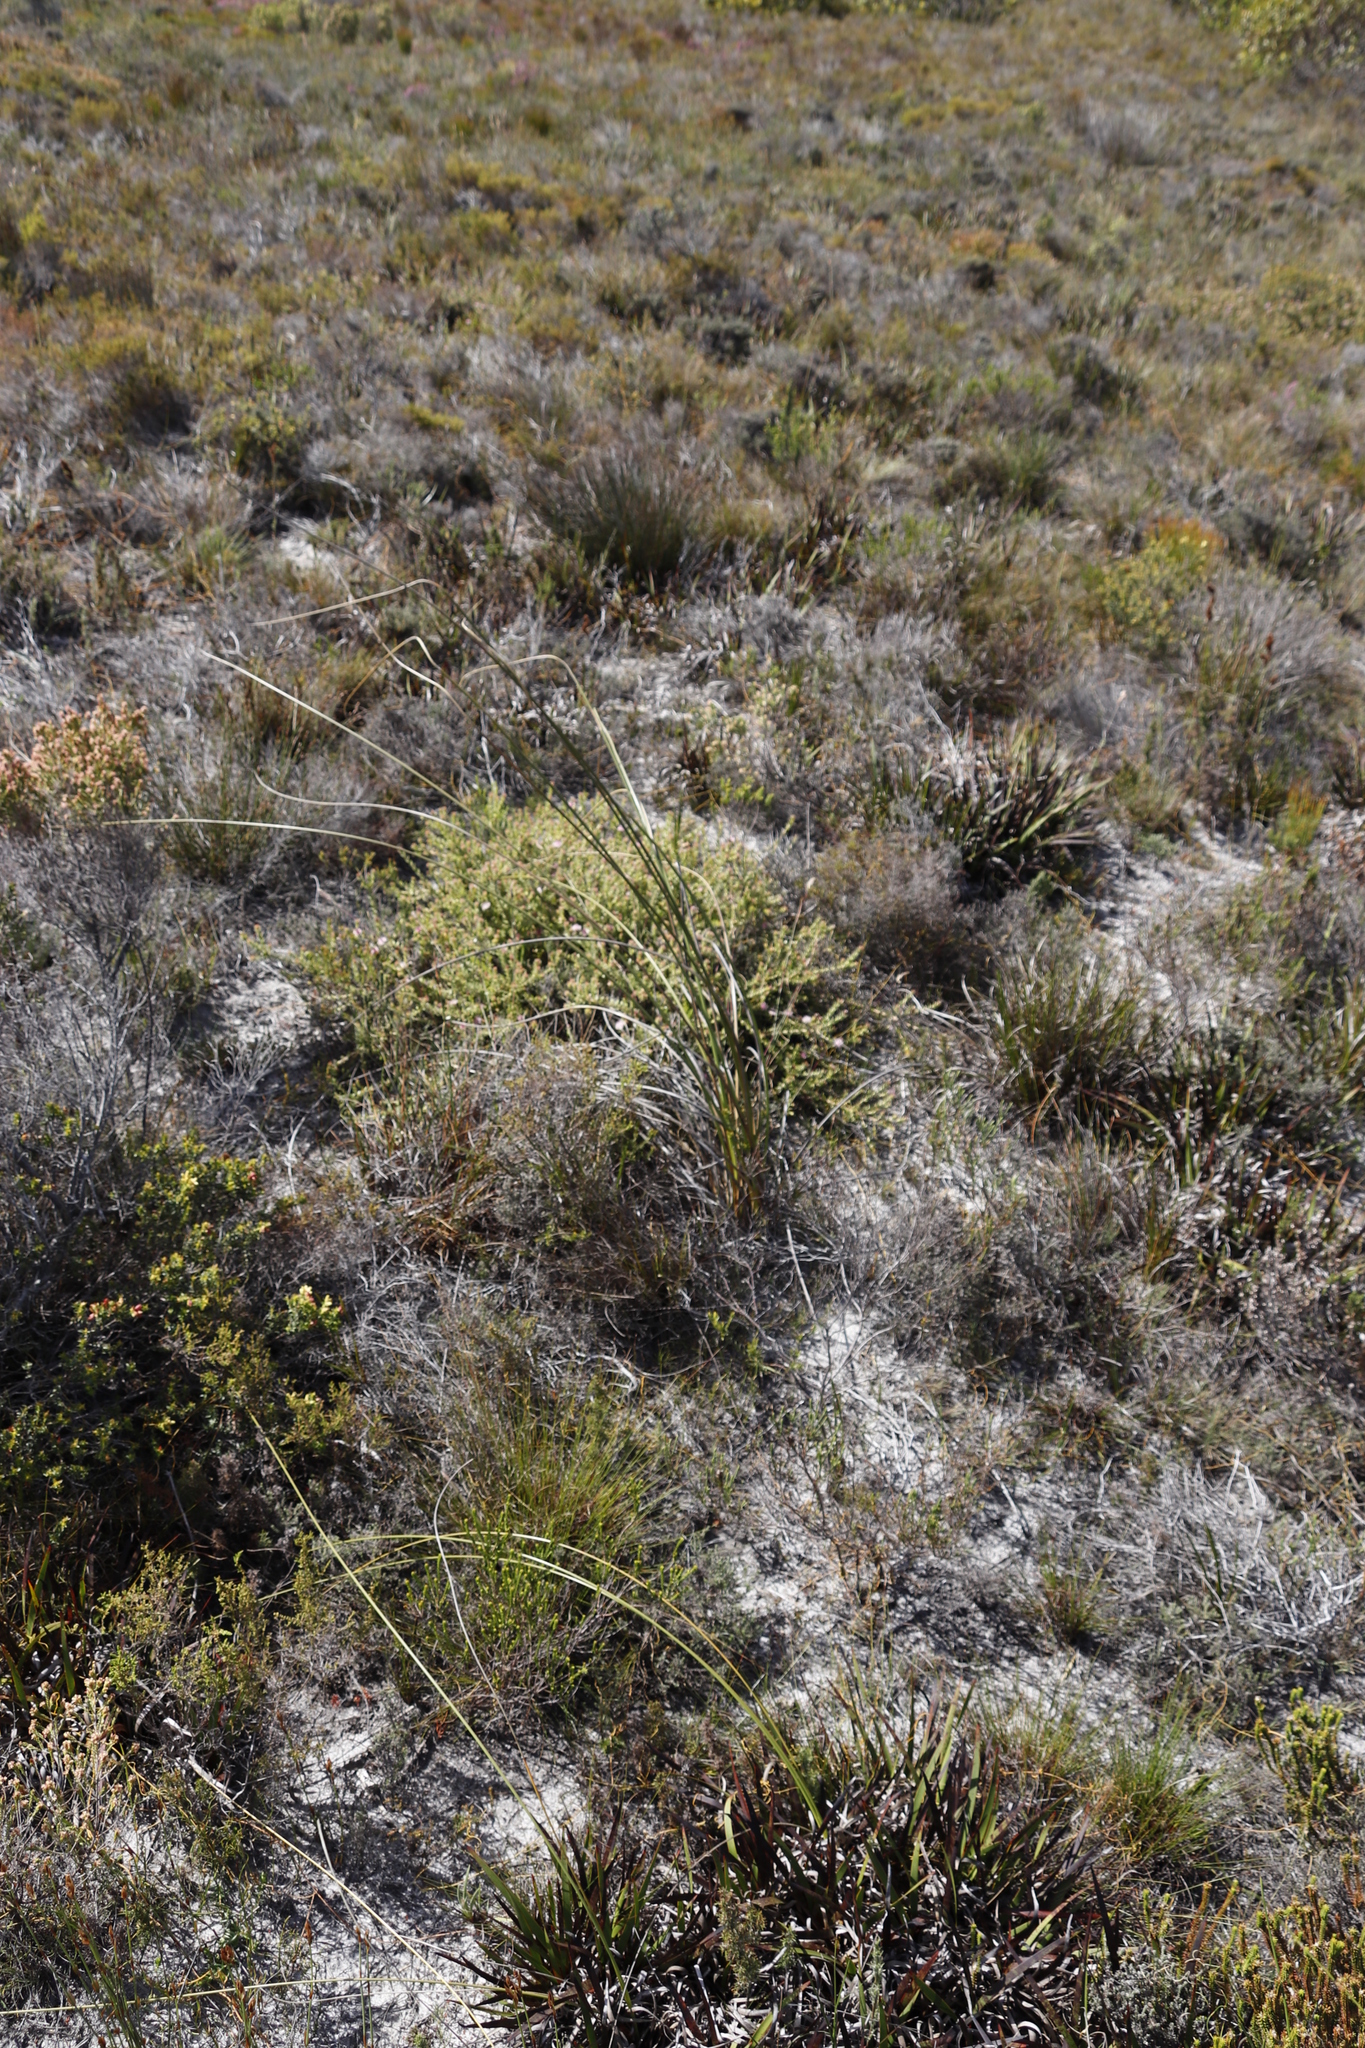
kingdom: Plantae
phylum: Tracheophyta
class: Liliopsida
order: Asparagales
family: Iridaceae
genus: Bobartia
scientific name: Bobartia indica
